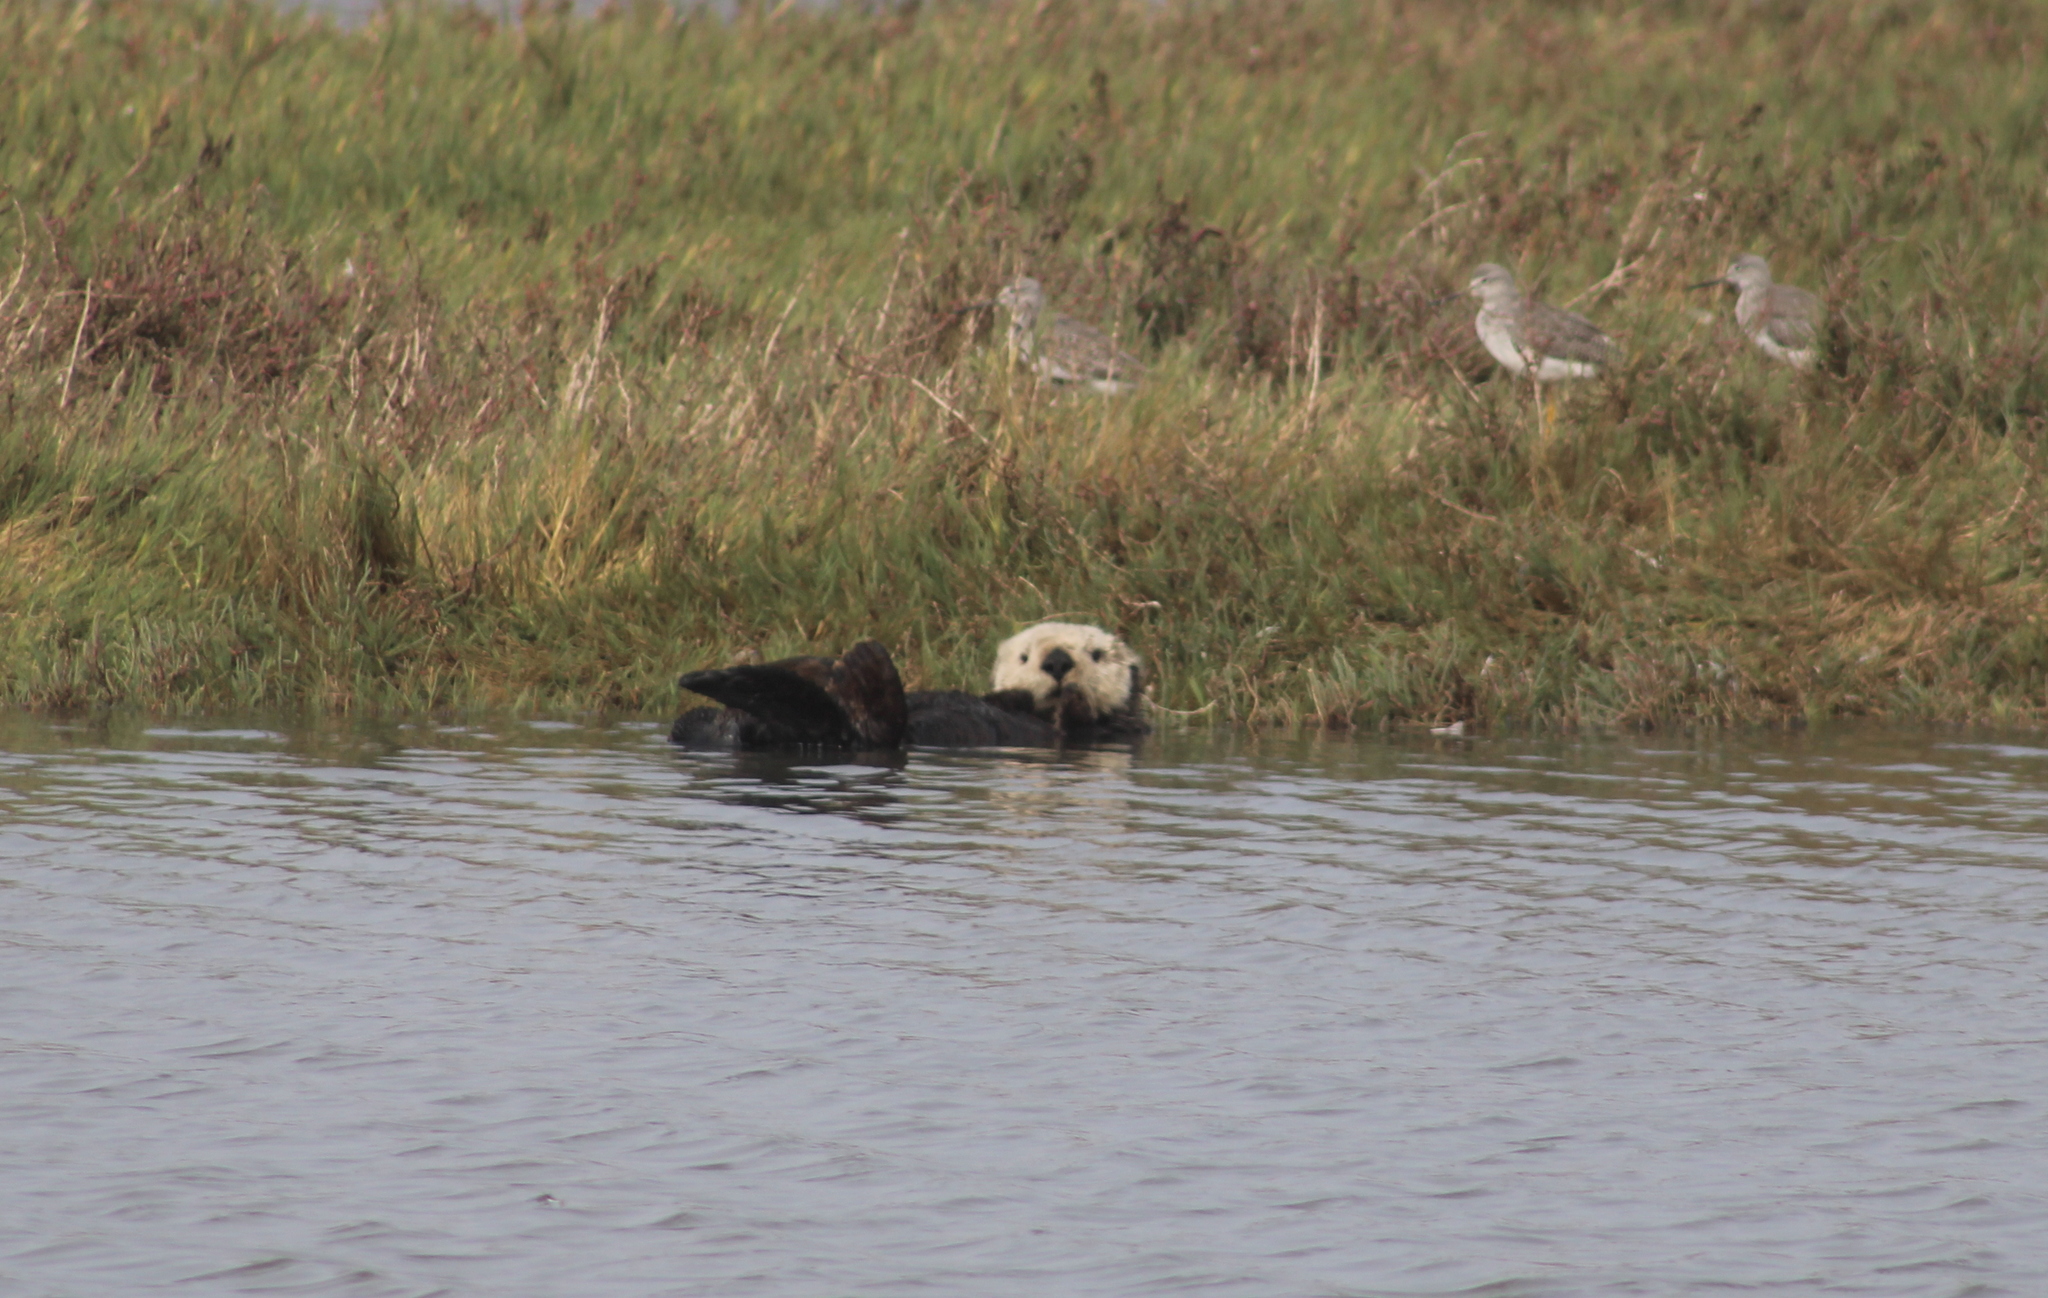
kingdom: Animalia
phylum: Chordata
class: Mammalia
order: Carnivora
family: Mustelidae
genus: Enhydra
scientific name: Enhydra lutris
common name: Sea otter
